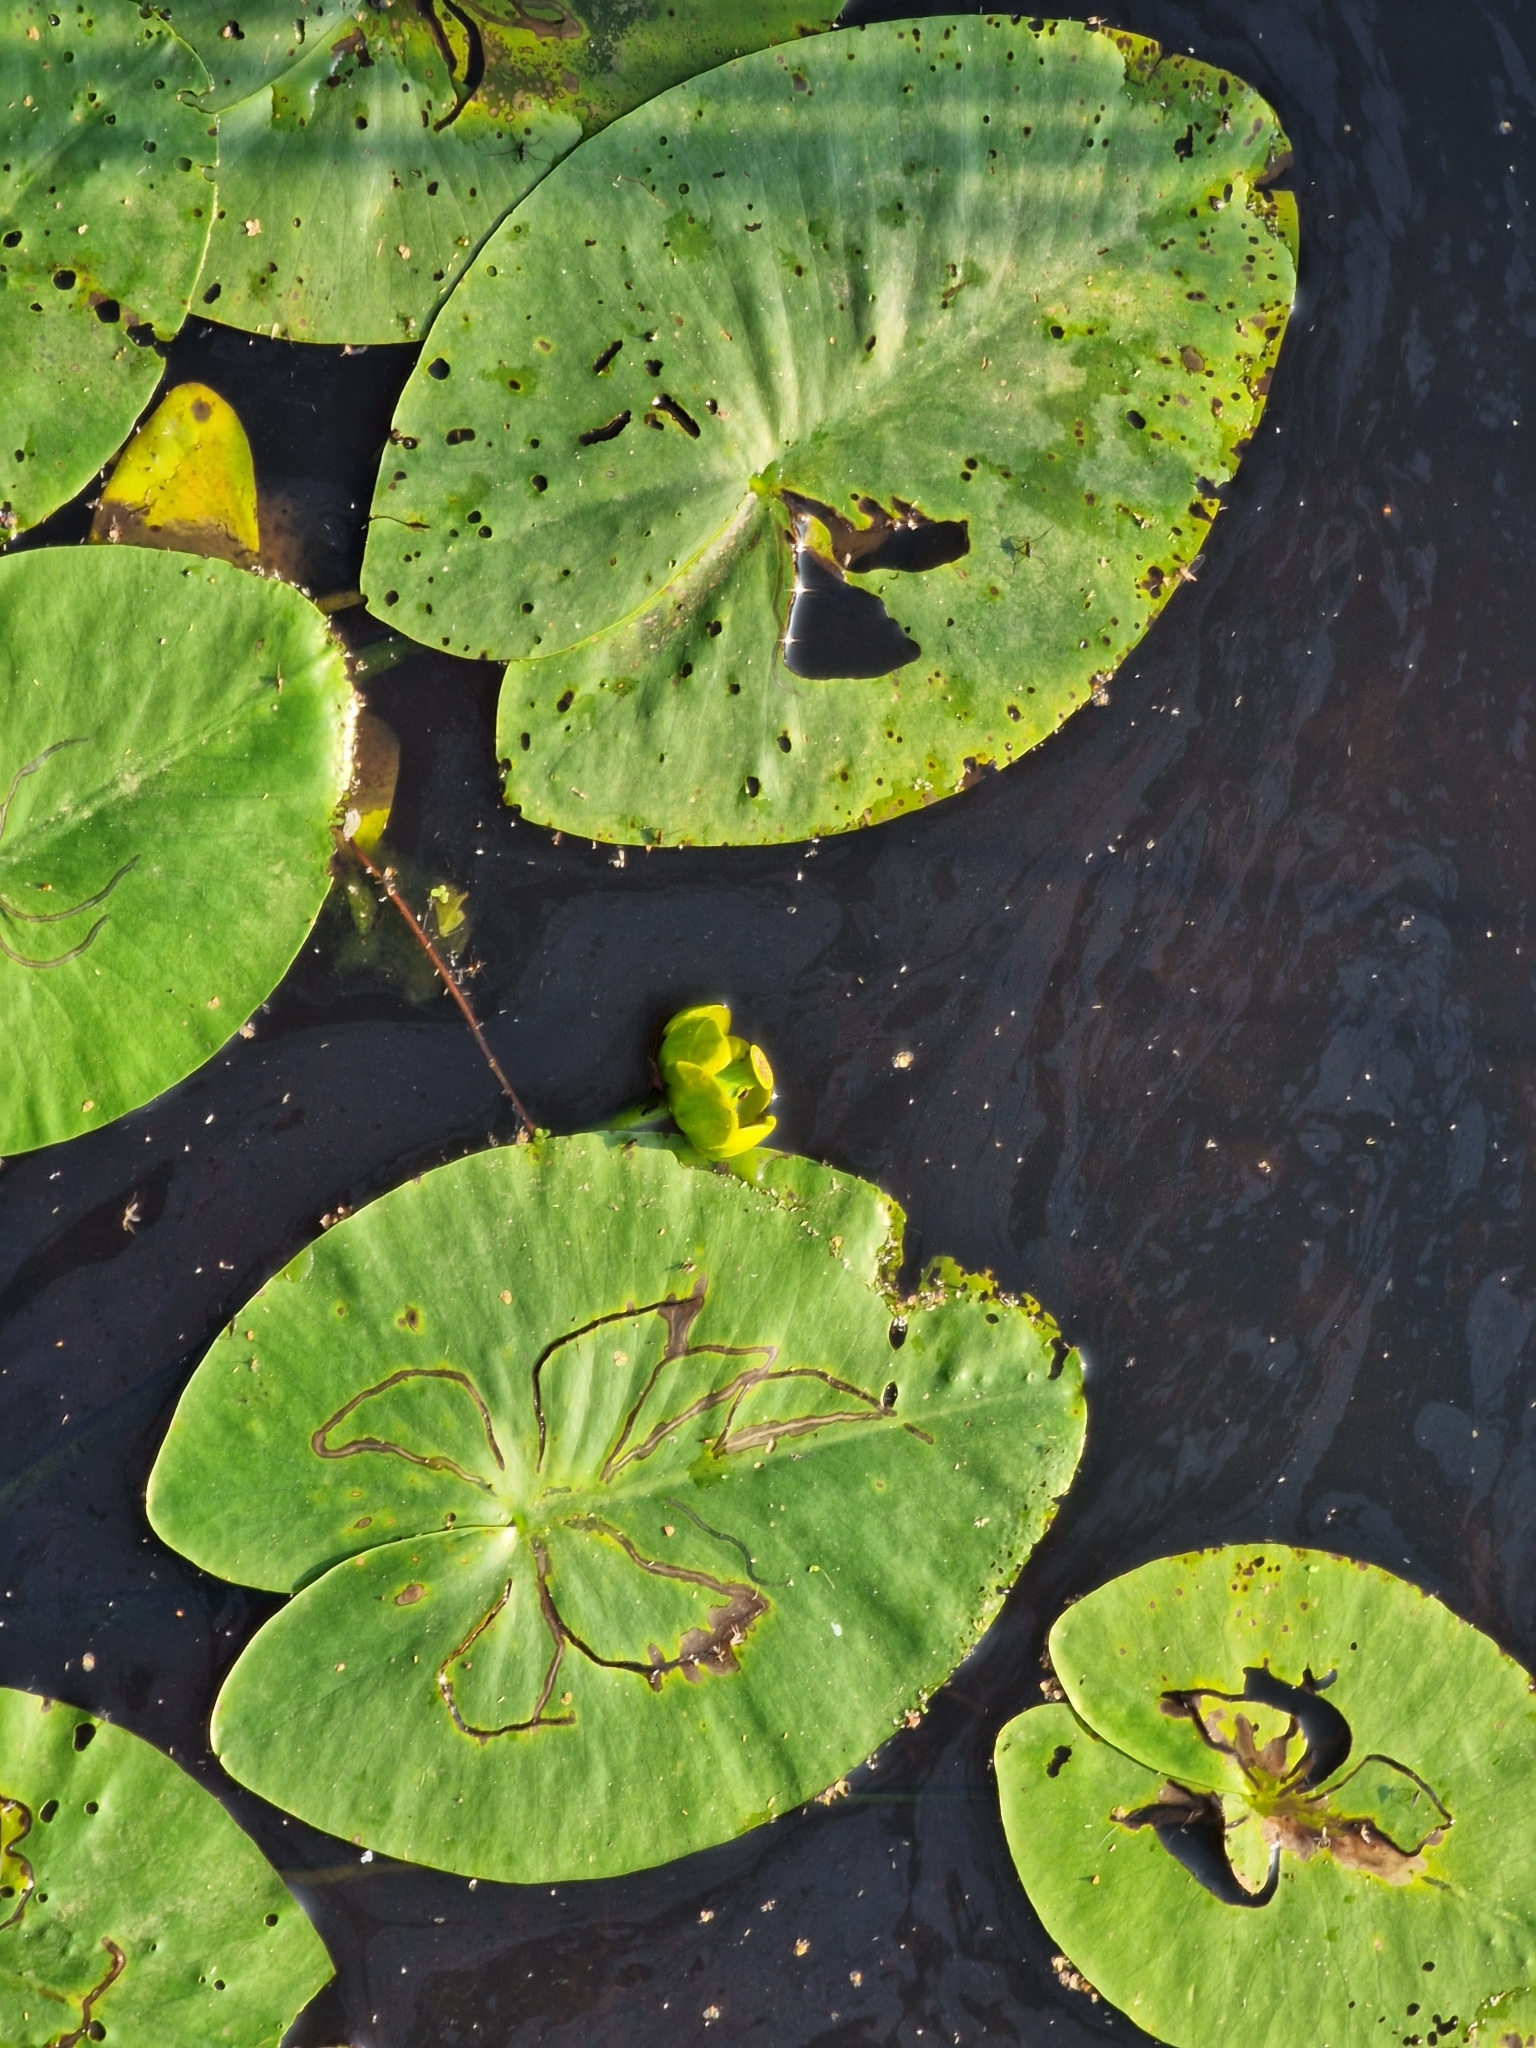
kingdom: Plantae
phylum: Tracheophyta
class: Magnoliopsida
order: Nymphaeales
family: Nymphaeaceae
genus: Nuphar
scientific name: Nuphar lutea
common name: Yellow water-lily
